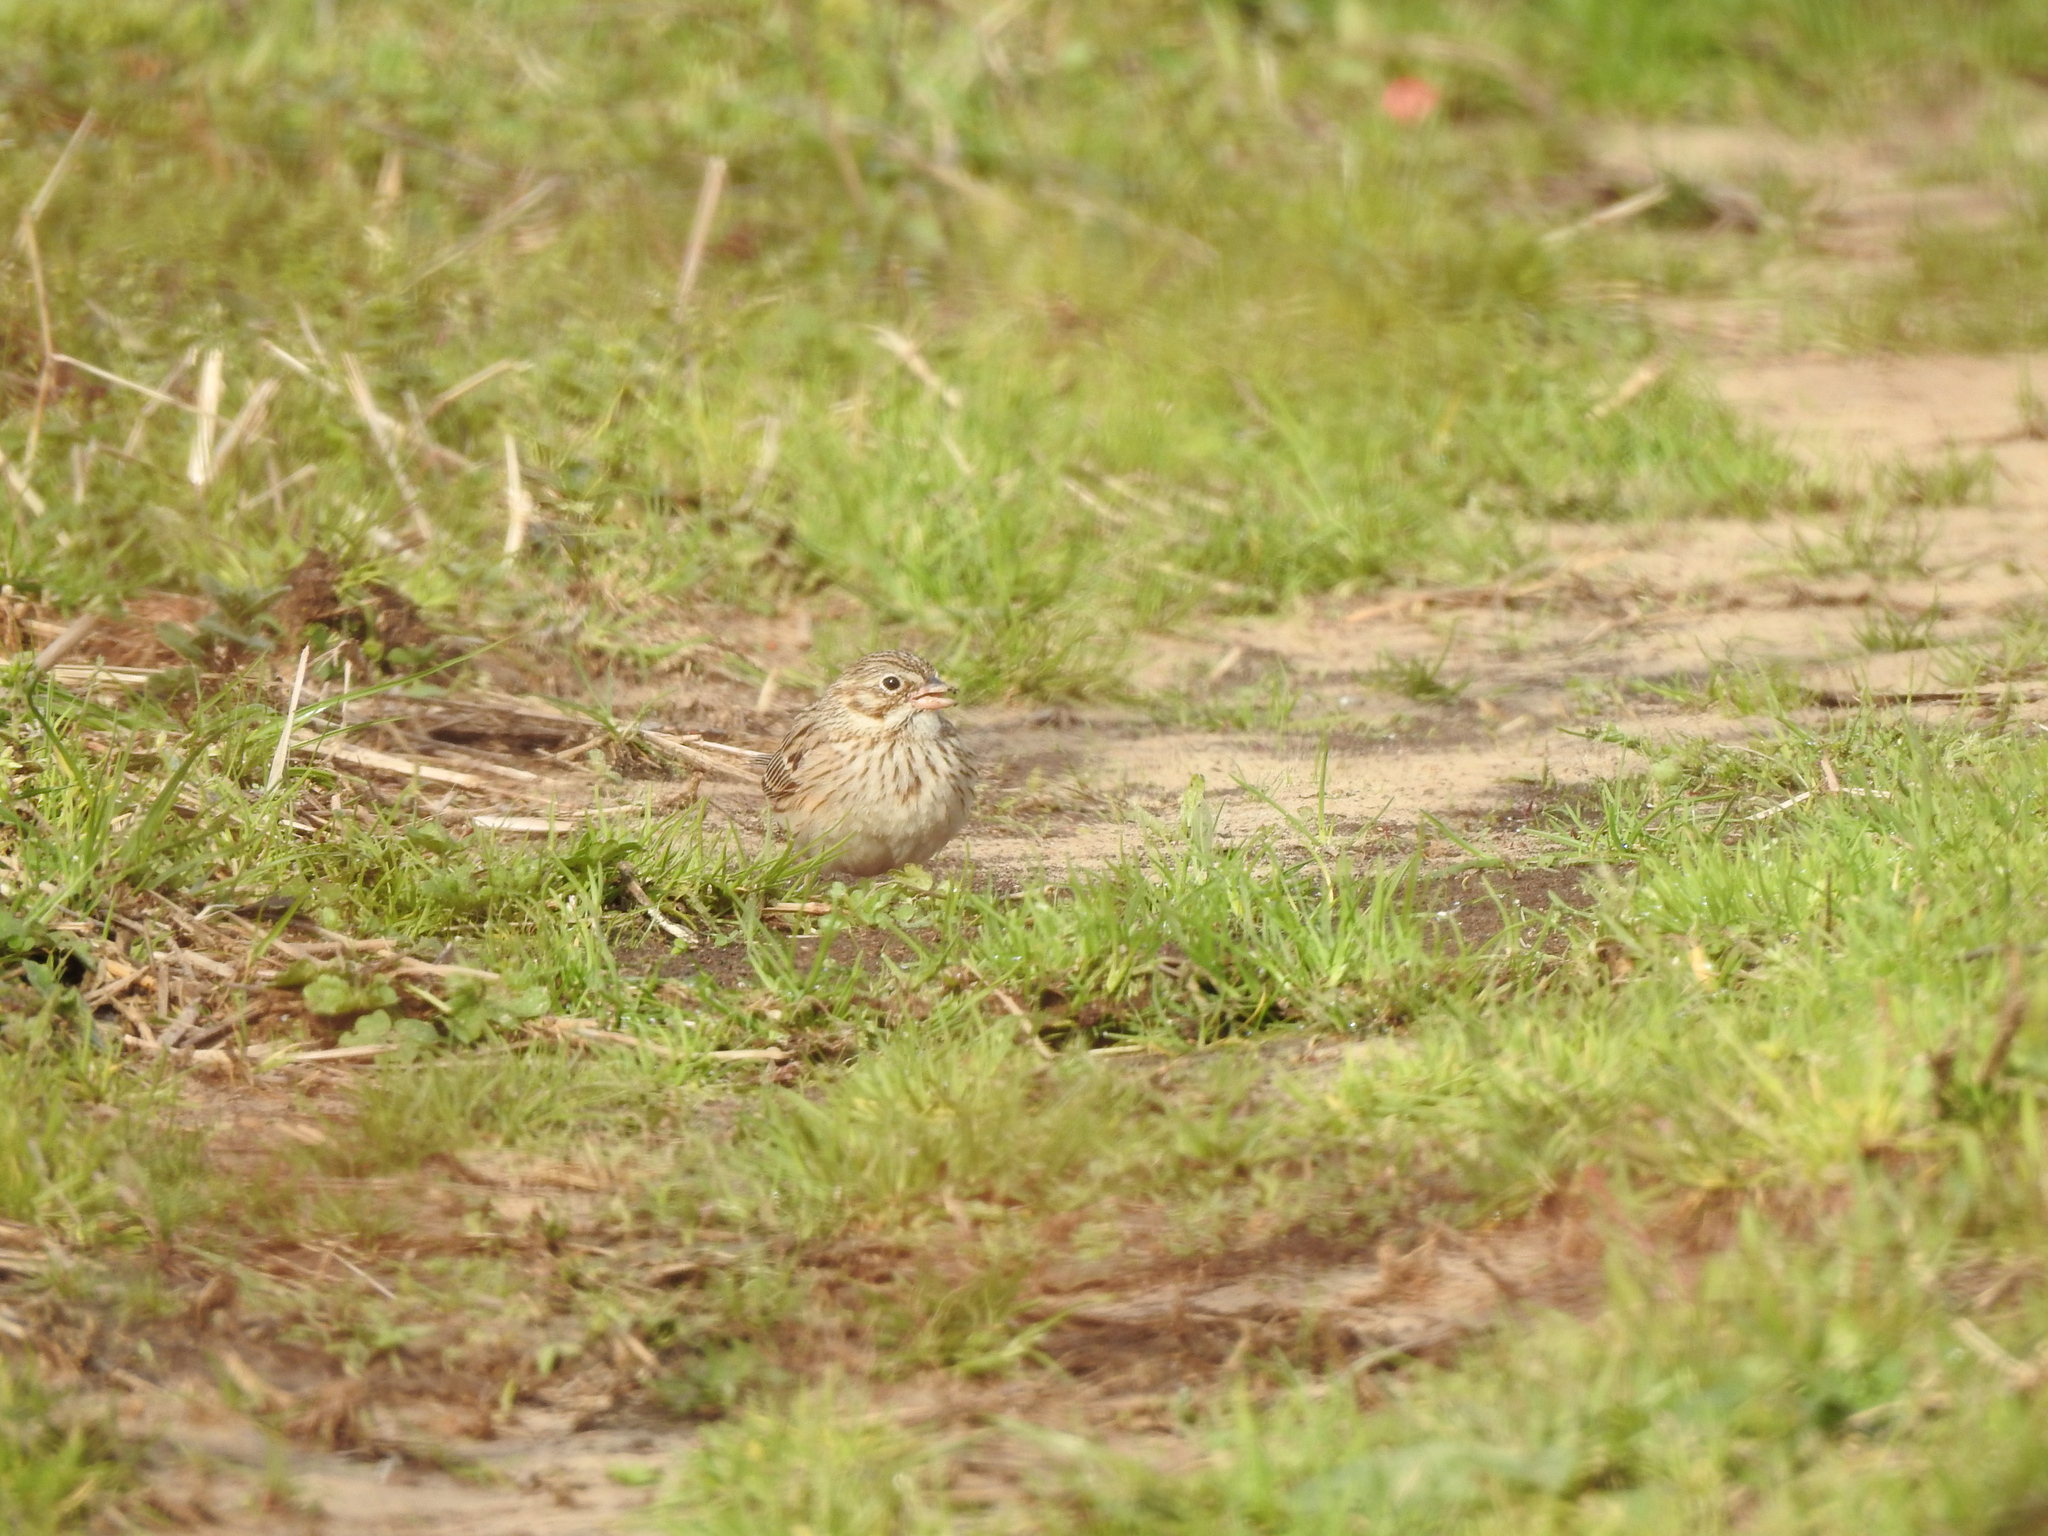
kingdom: Animalia
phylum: Chordata
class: Aves
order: Passeriformes
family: Passerellidae
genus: Pooecetes
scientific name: Pooecetes gramineus
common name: Vesper sparrow
